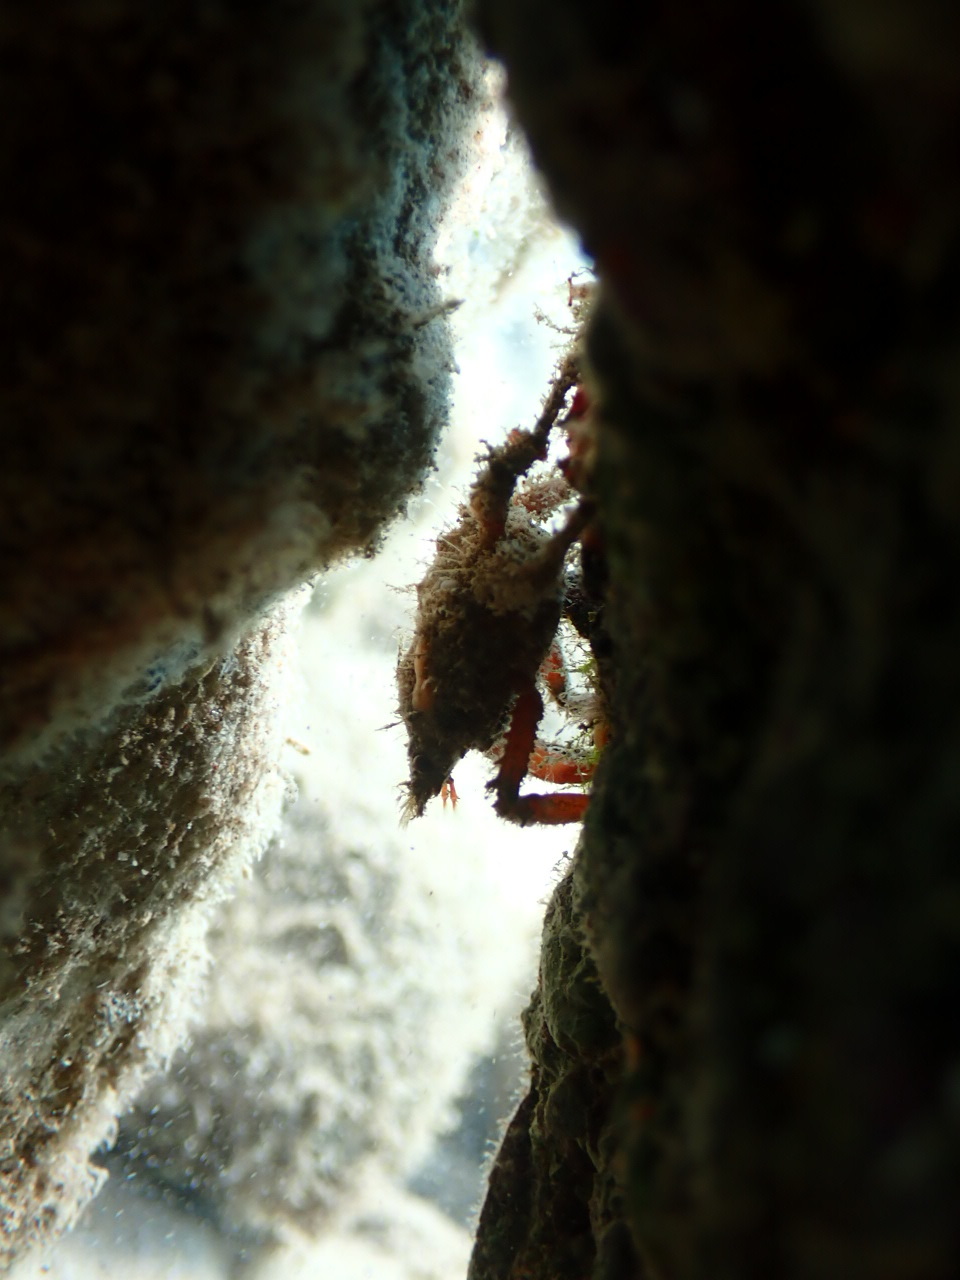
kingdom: Animalia
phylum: Arthropoda
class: Malacostraca
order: Decapoda
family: Epialtidae
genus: Herbstia
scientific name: Herbstia condyliata
